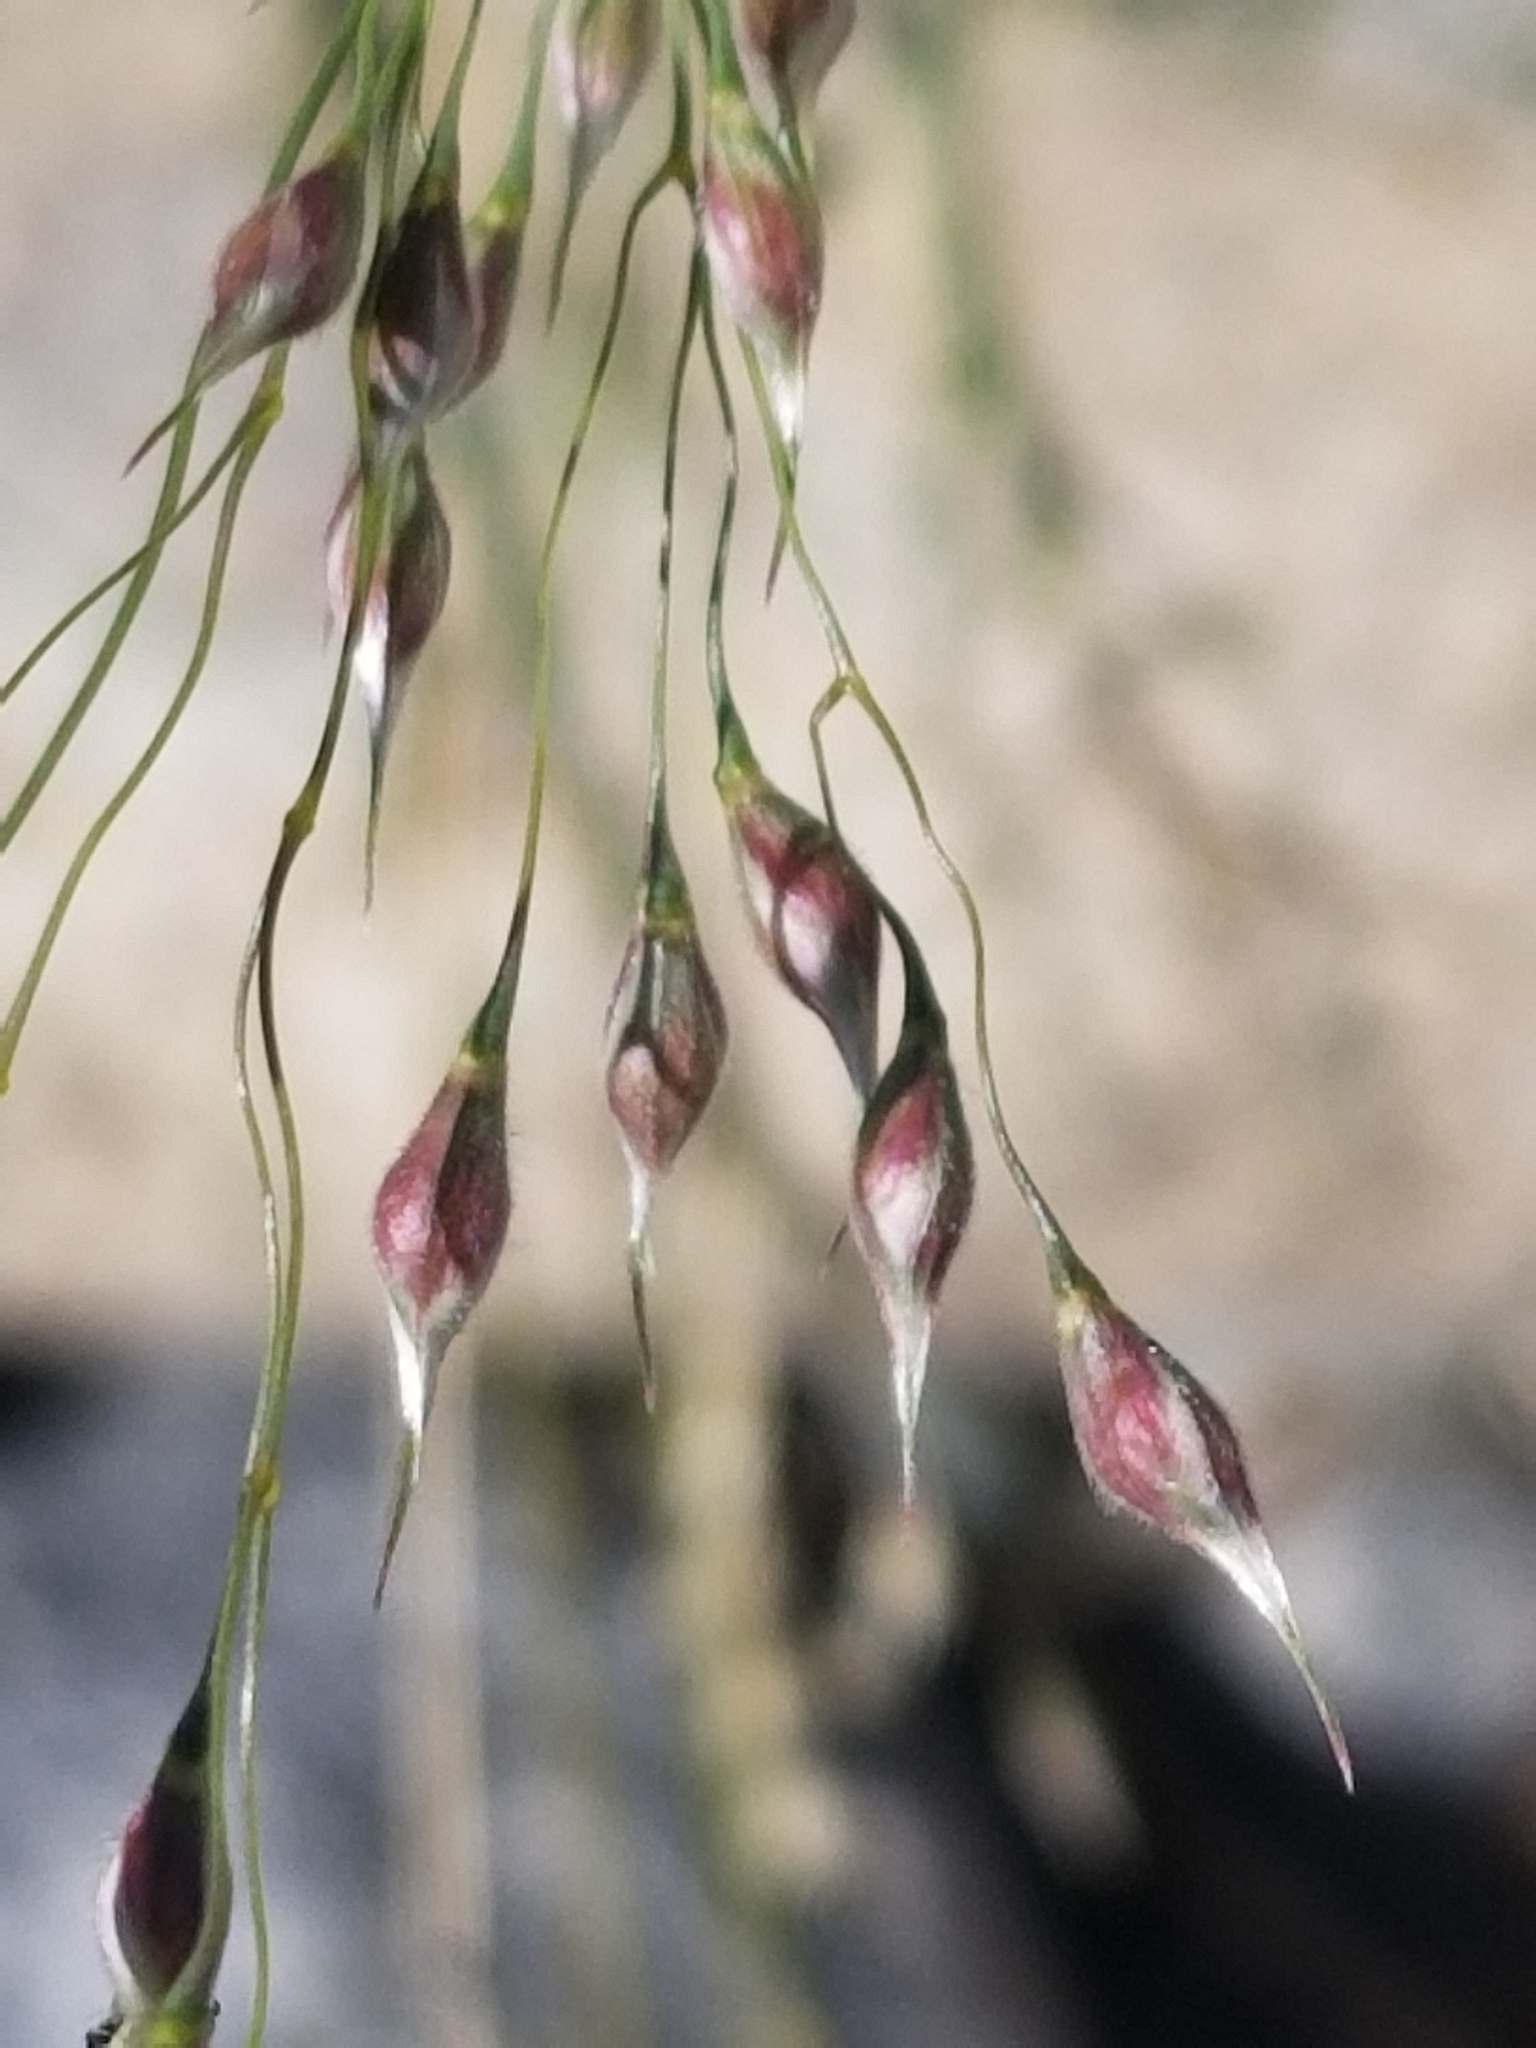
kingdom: Plantae
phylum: Tracheophyta
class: Liliopsida
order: Poales
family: Poaceae
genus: Eriocoma
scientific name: Eriocoma hymenoides
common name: Indian mountain ricegrass
